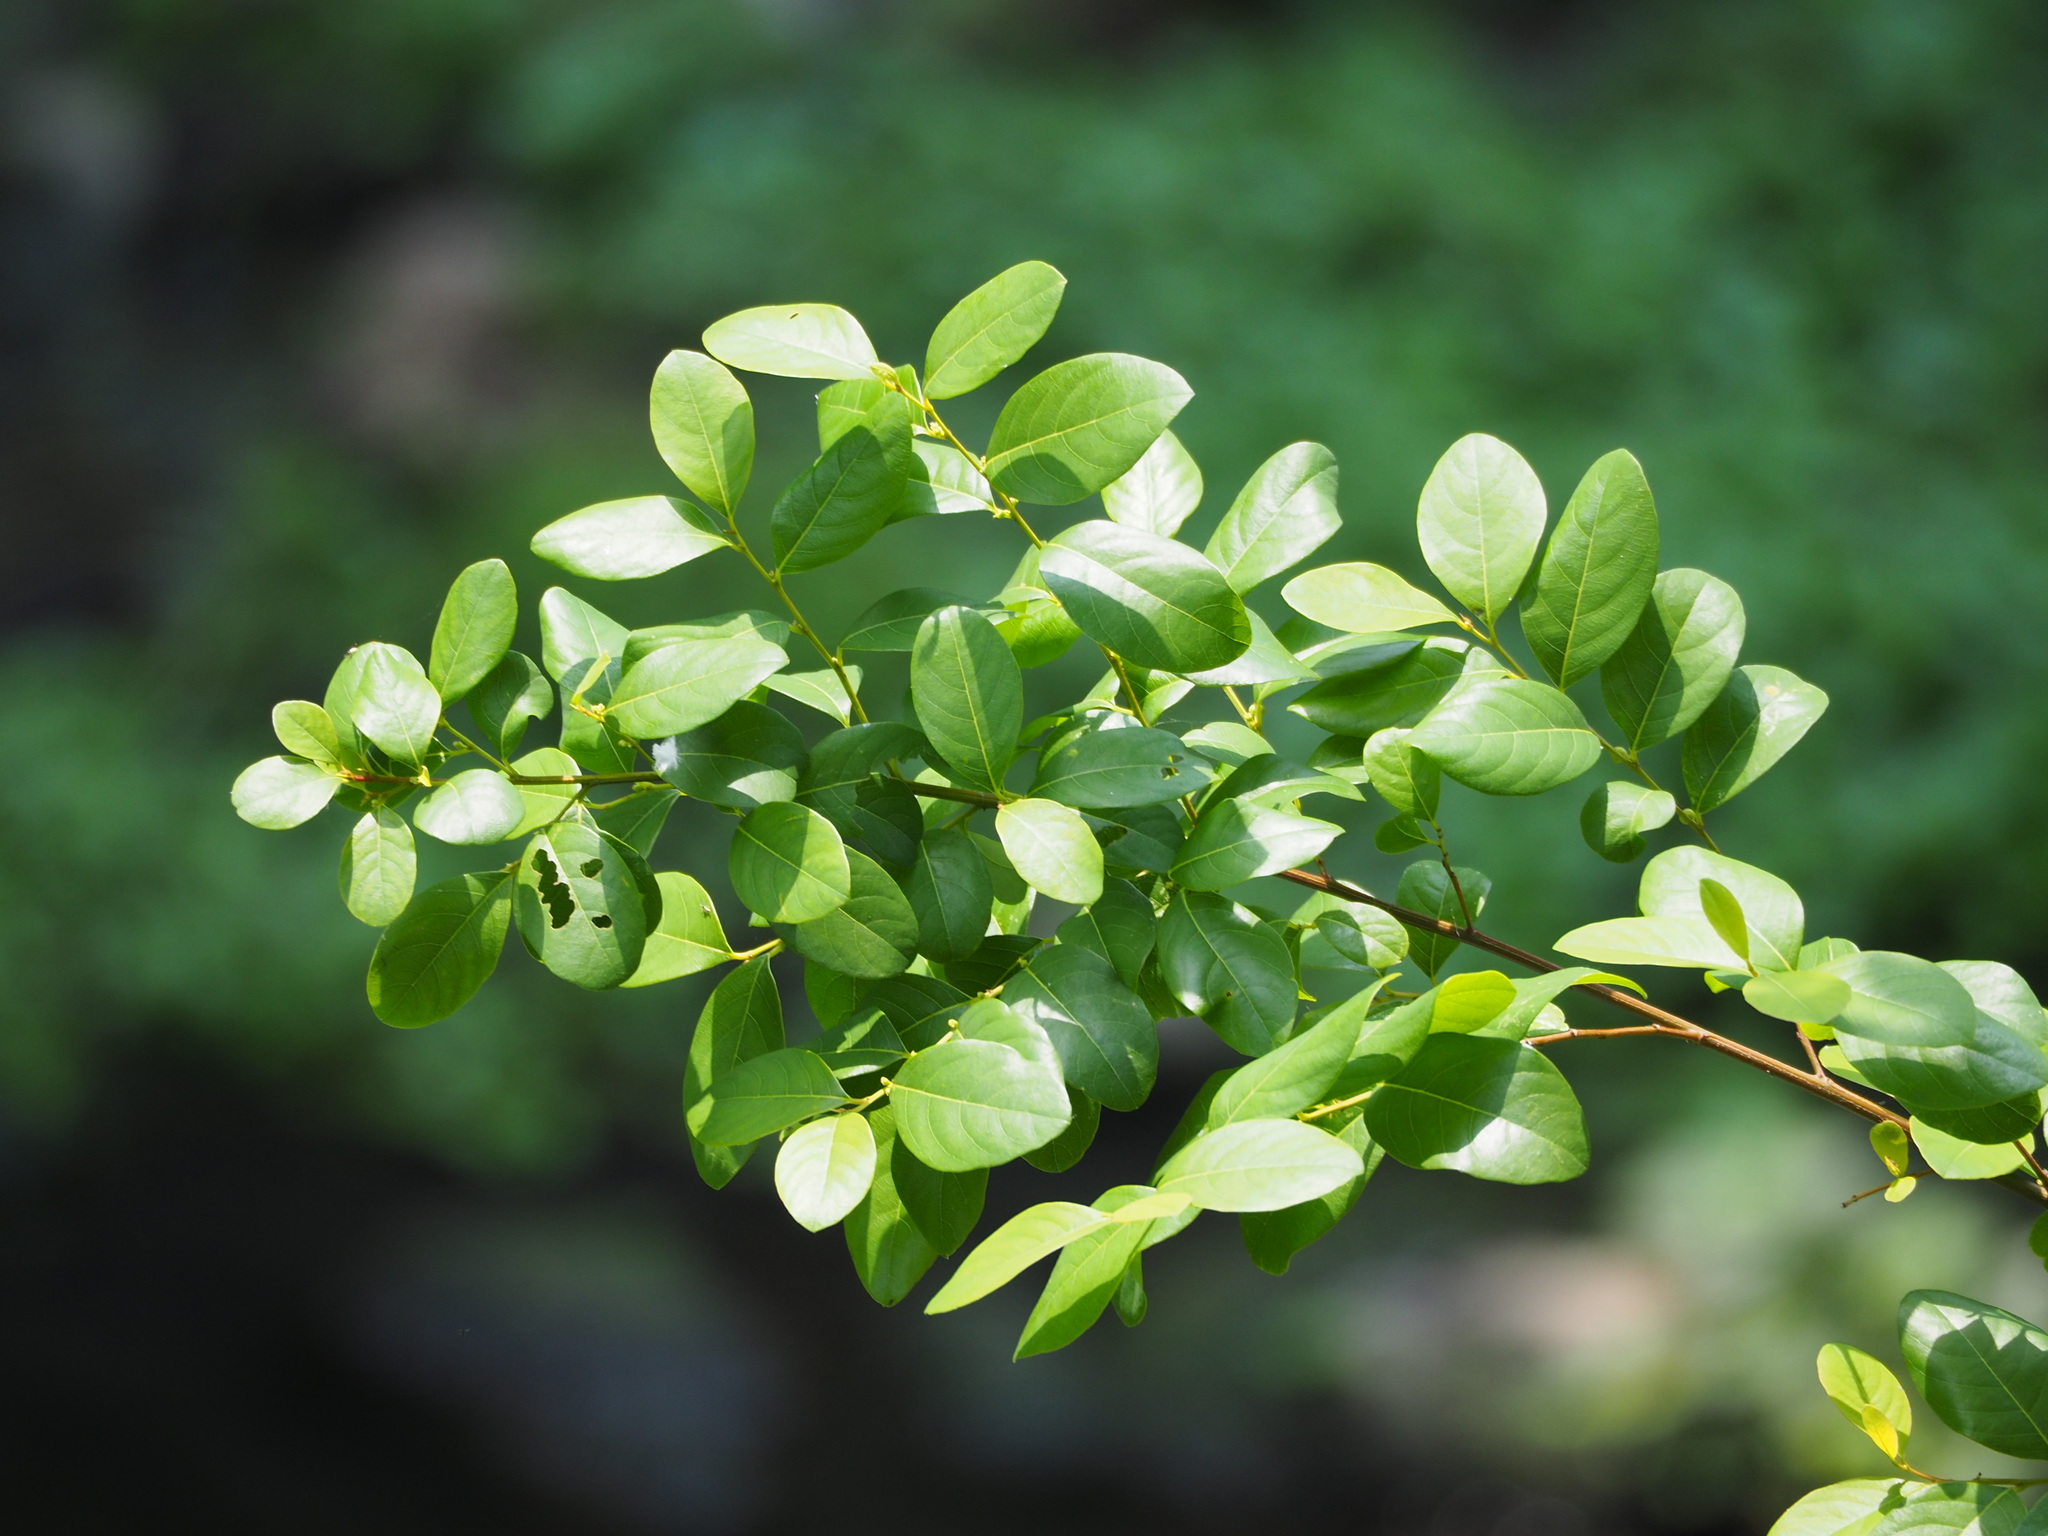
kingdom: Plantae
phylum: Tracheophyta
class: Magnoliopsida
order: Malpighiales
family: Phyllanthaceae
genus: Flueggea
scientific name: Flueggea virosa
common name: Common bushweed
